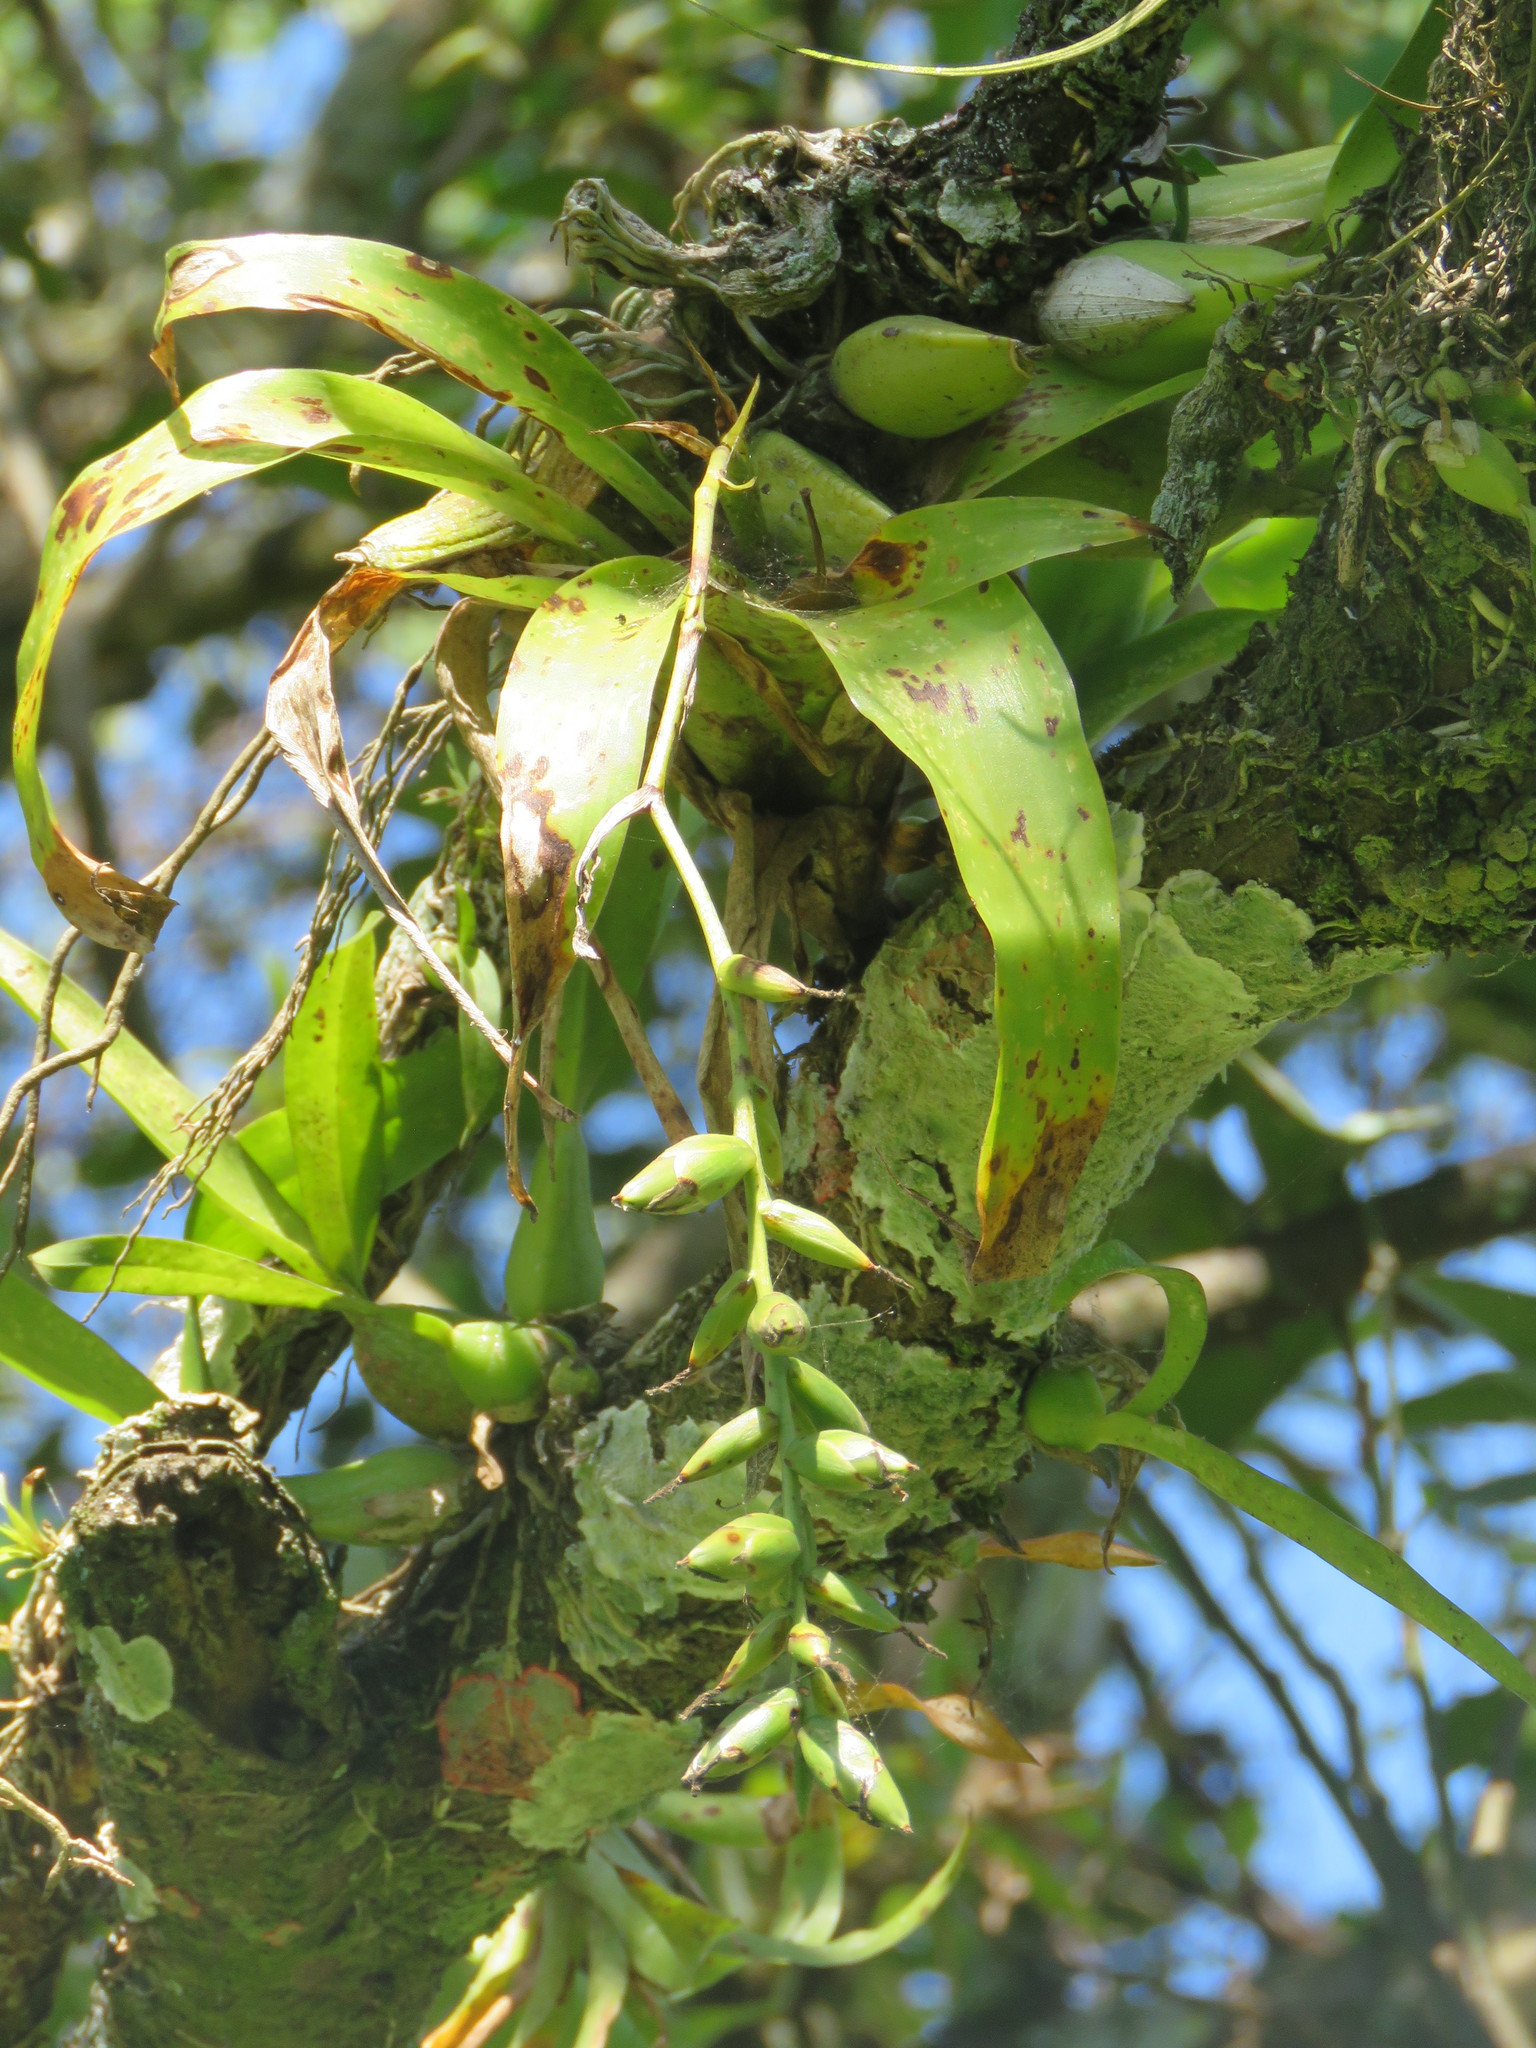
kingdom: Plantae
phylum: Tracheophyta
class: Liliopsida
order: Poales
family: Bromeliaceae
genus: Catopsis
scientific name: Catopsis nutans
